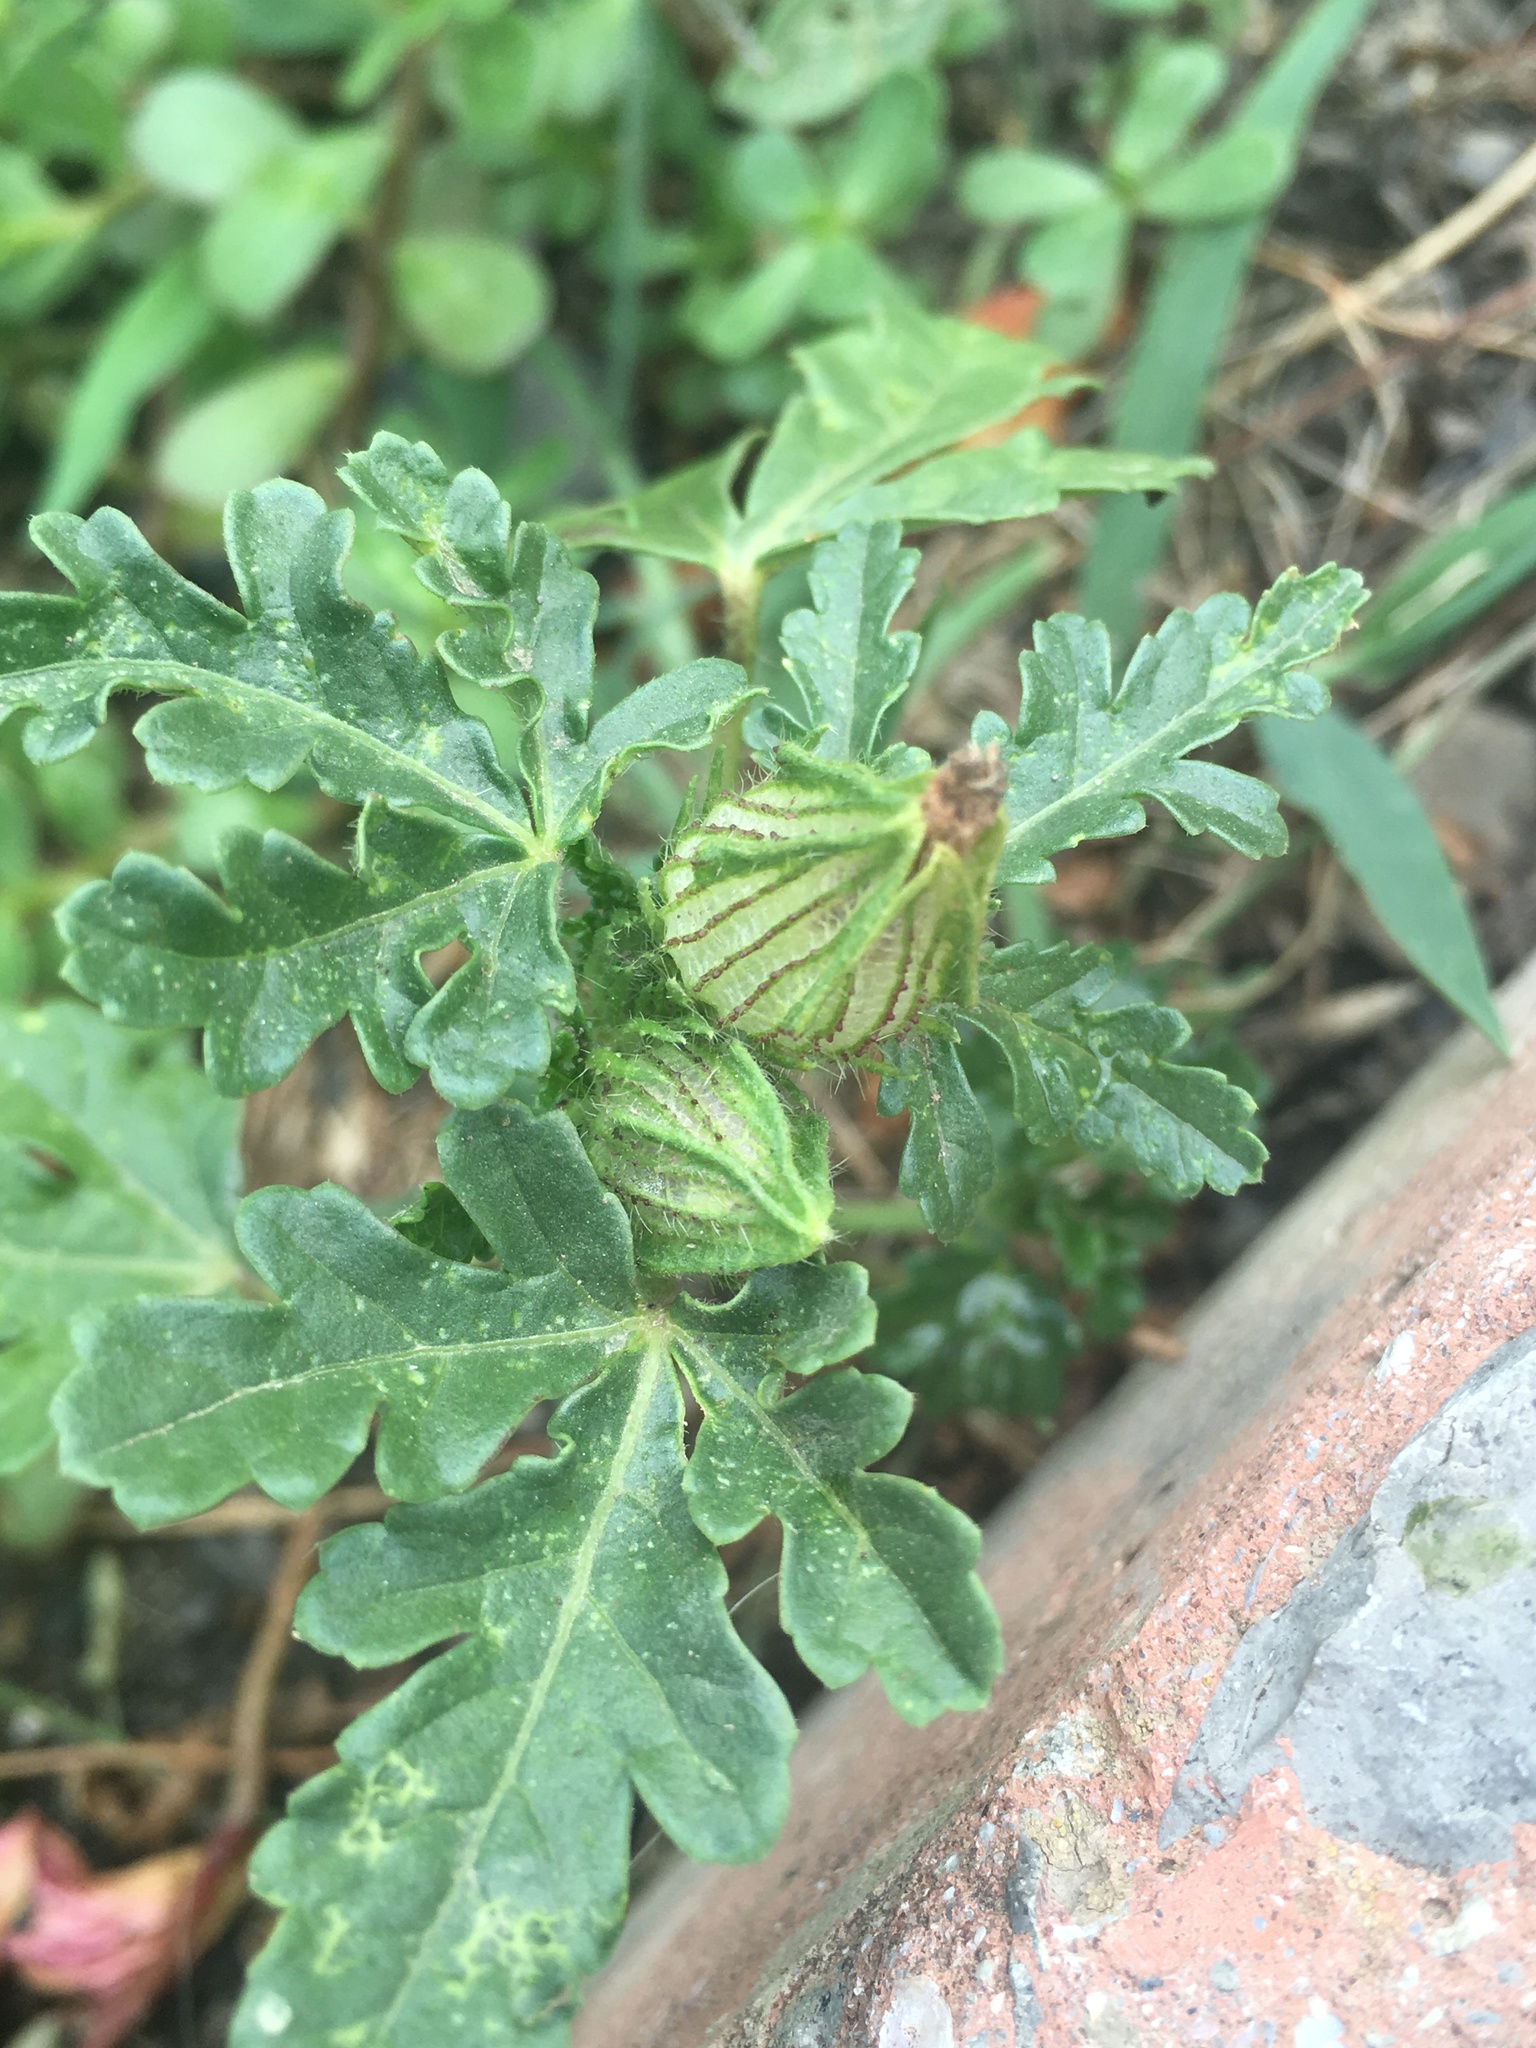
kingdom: Plantae
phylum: Tracheophyta
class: Magnoliopsida
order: Malvales
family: Malvaceae
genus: Hibiscus
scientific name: Hibiscus trionum
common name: Bladder ketmia
